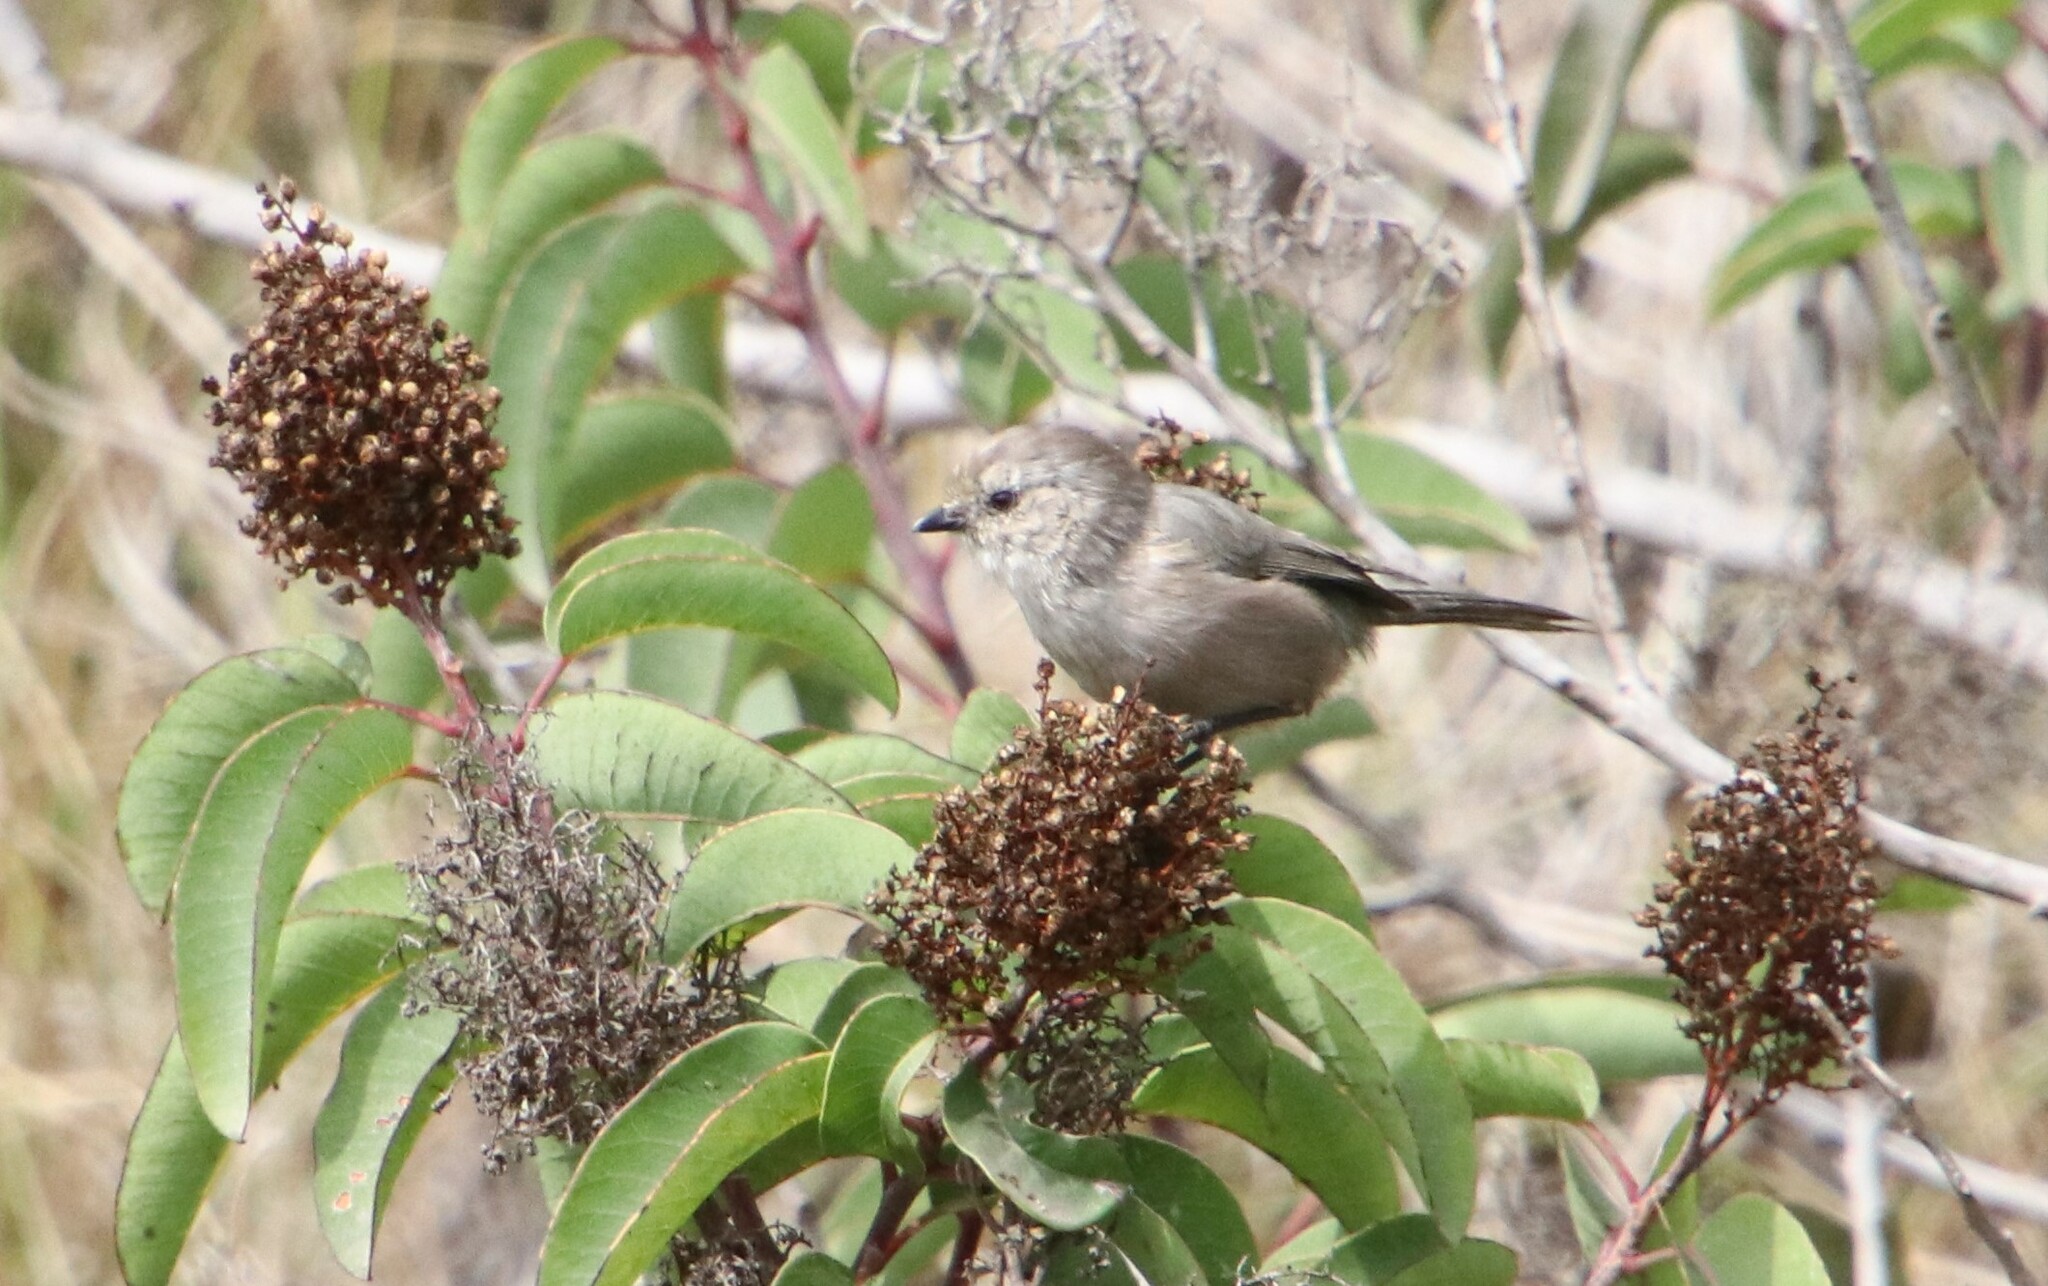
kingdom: Animalia
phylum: Chordata
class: Aves
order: Passeriformes
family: Aegithalidae
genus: Psaltriparus
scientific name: Psaltriparus minimus
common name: American bushtit
